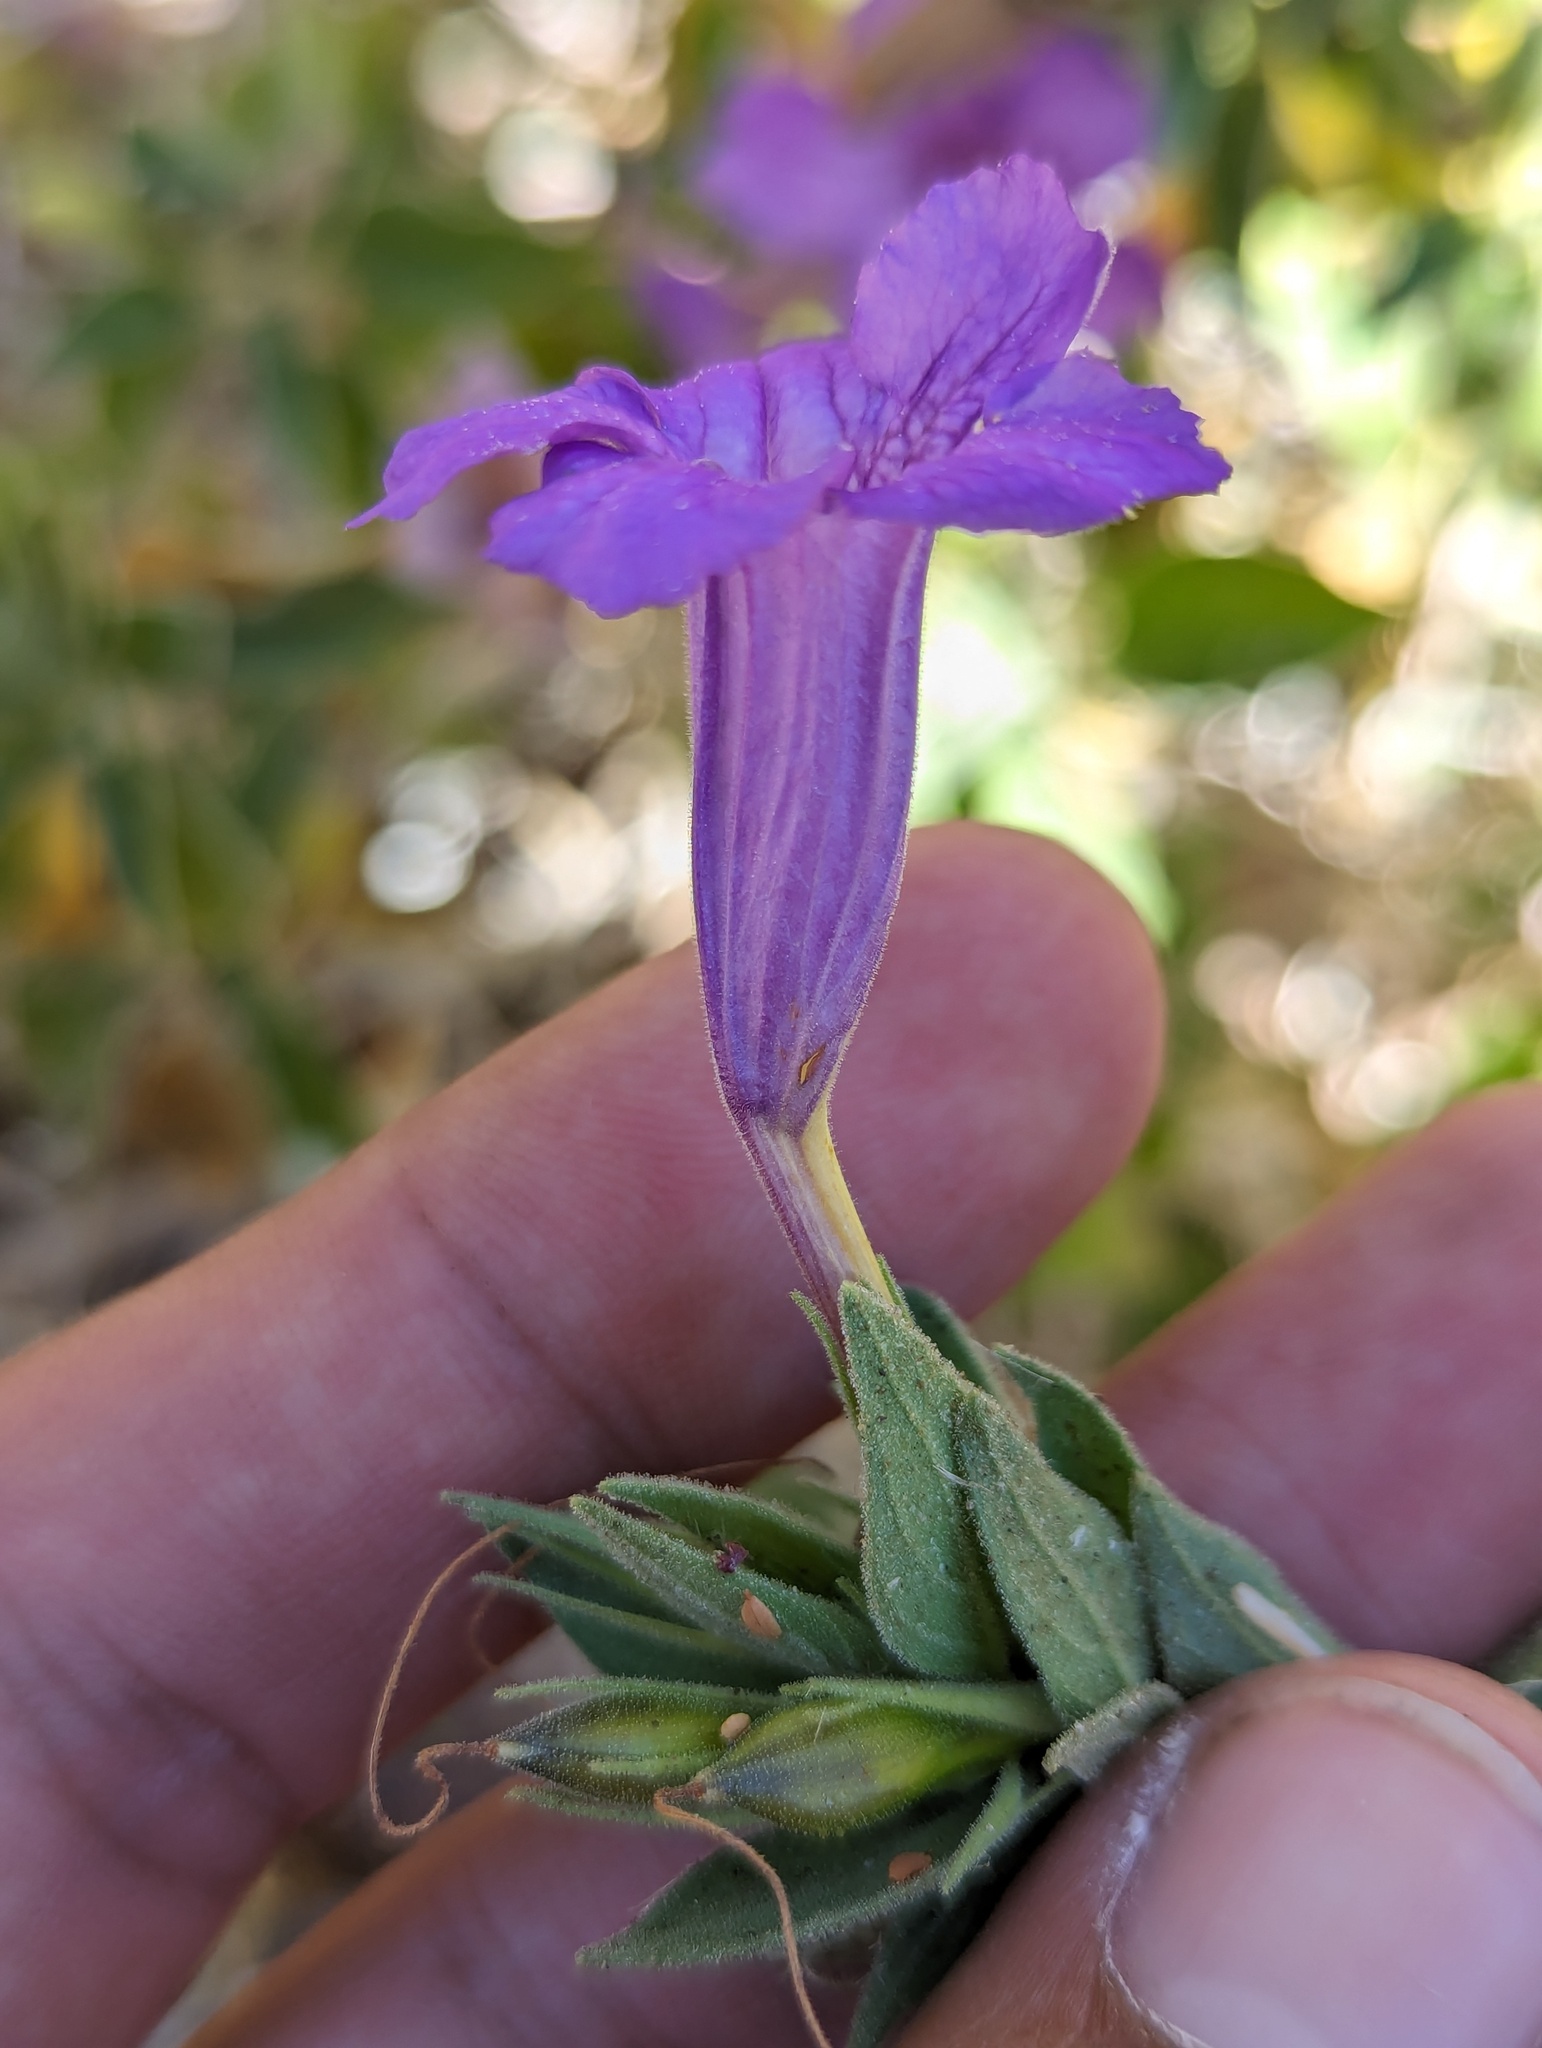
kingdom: Plantae
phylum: Tracheophyta
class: Magnoliopsida
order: Lamiales
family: Acanthaceae
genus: Ruellia
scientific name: Ruellia californica
